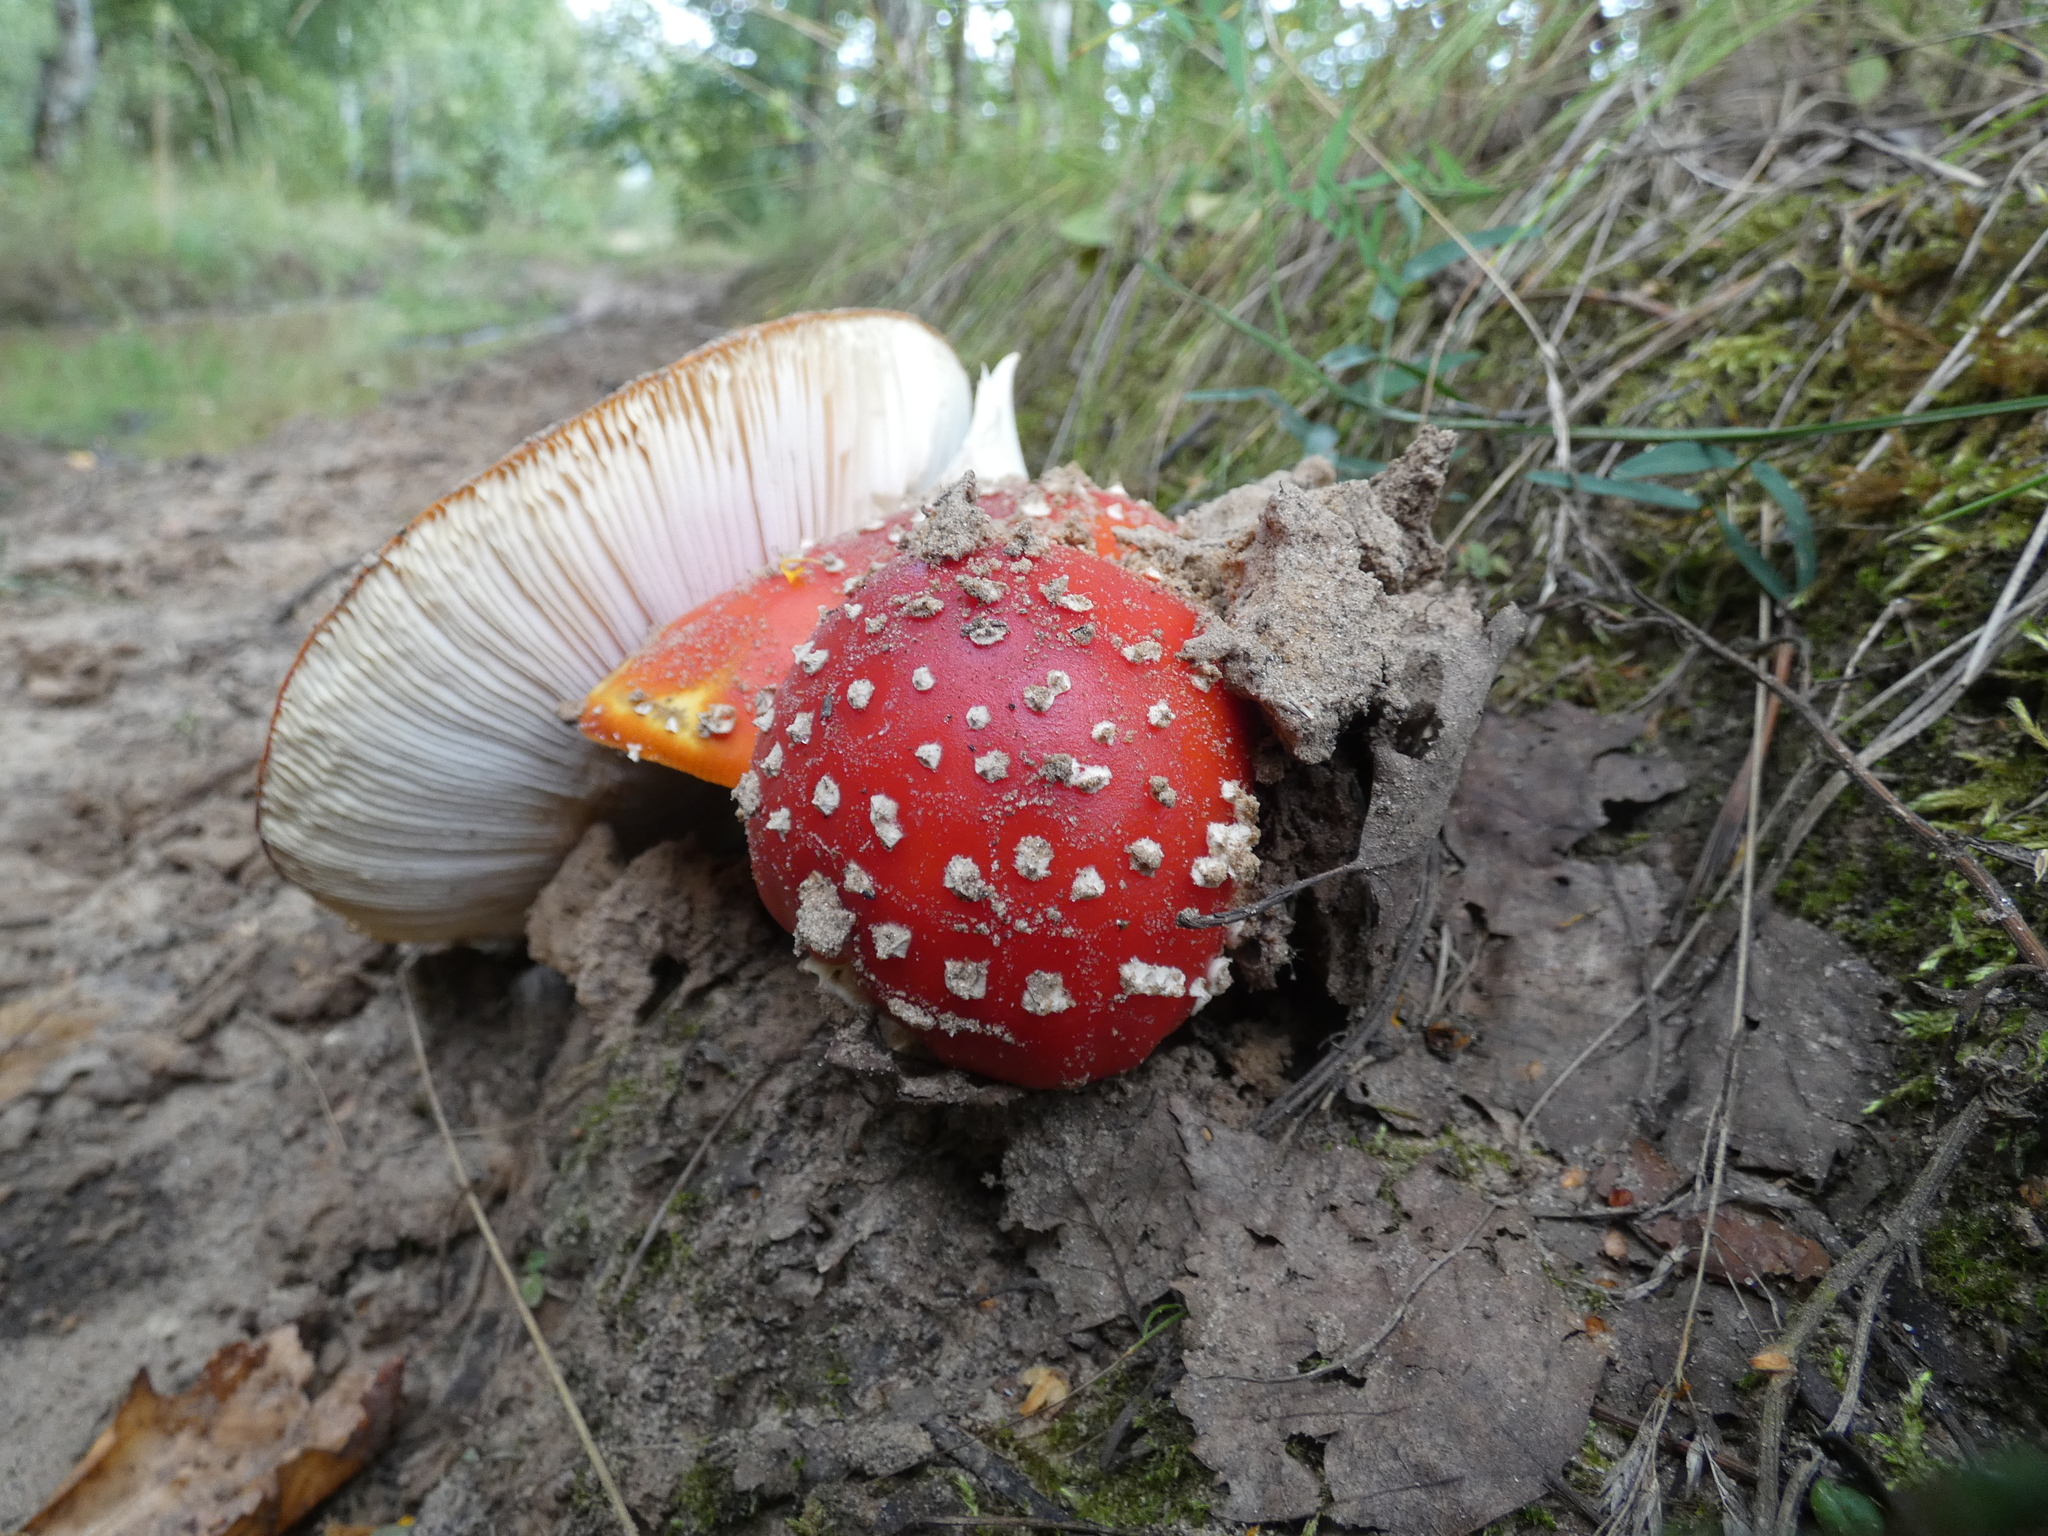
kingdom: Fungi
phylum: Basidiomycota
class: Agaricomycetes
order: Agaricales
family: Amanitaceae
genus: Amanita
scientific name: Amanita muscaria
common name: Fly agaric
